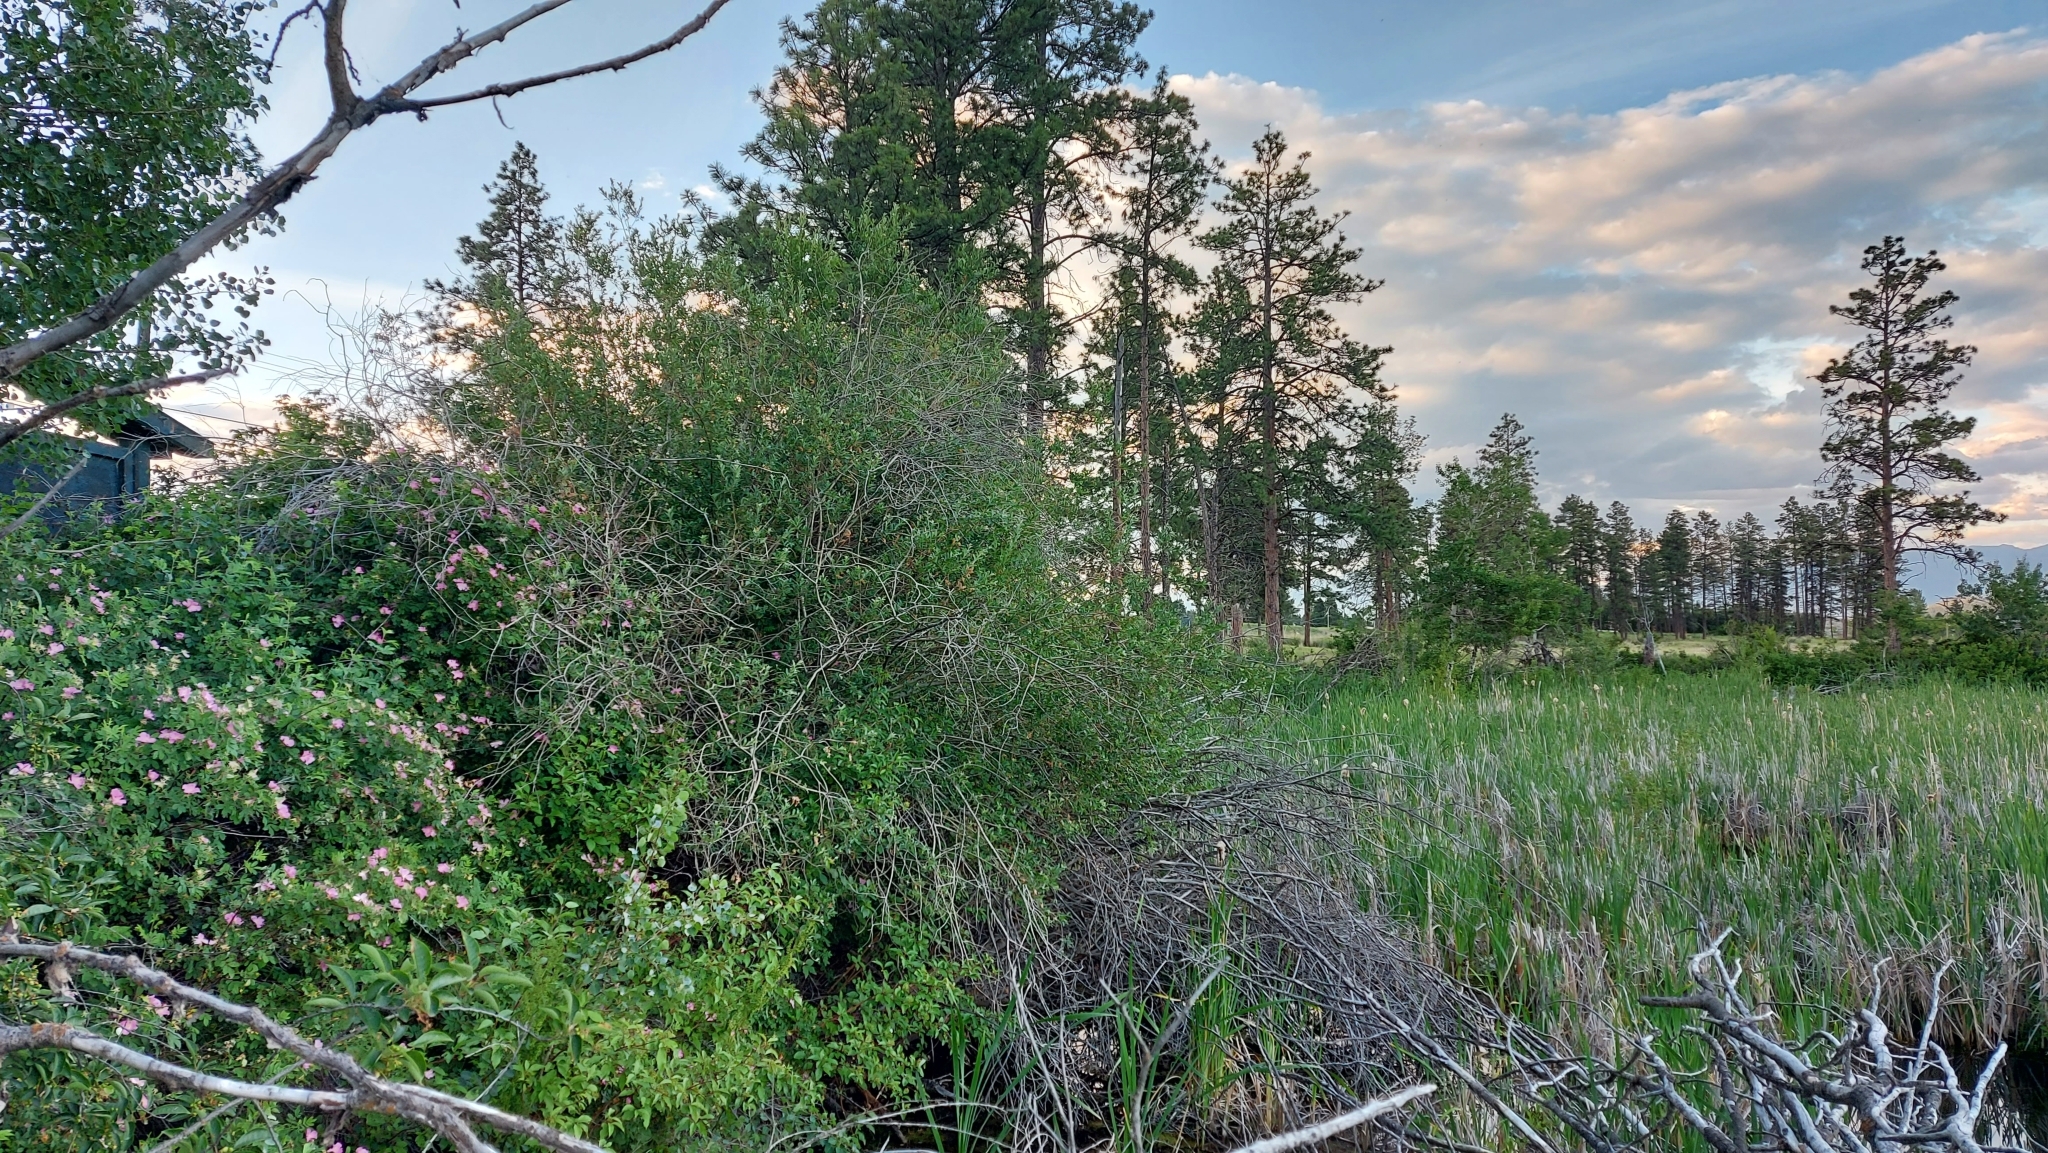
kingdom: Animalia
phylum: Chordata
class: Aves
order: Passeriformes
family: Mimidae
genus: Dumetella
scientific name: Dumetella carolinensis
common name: Gray catbird
